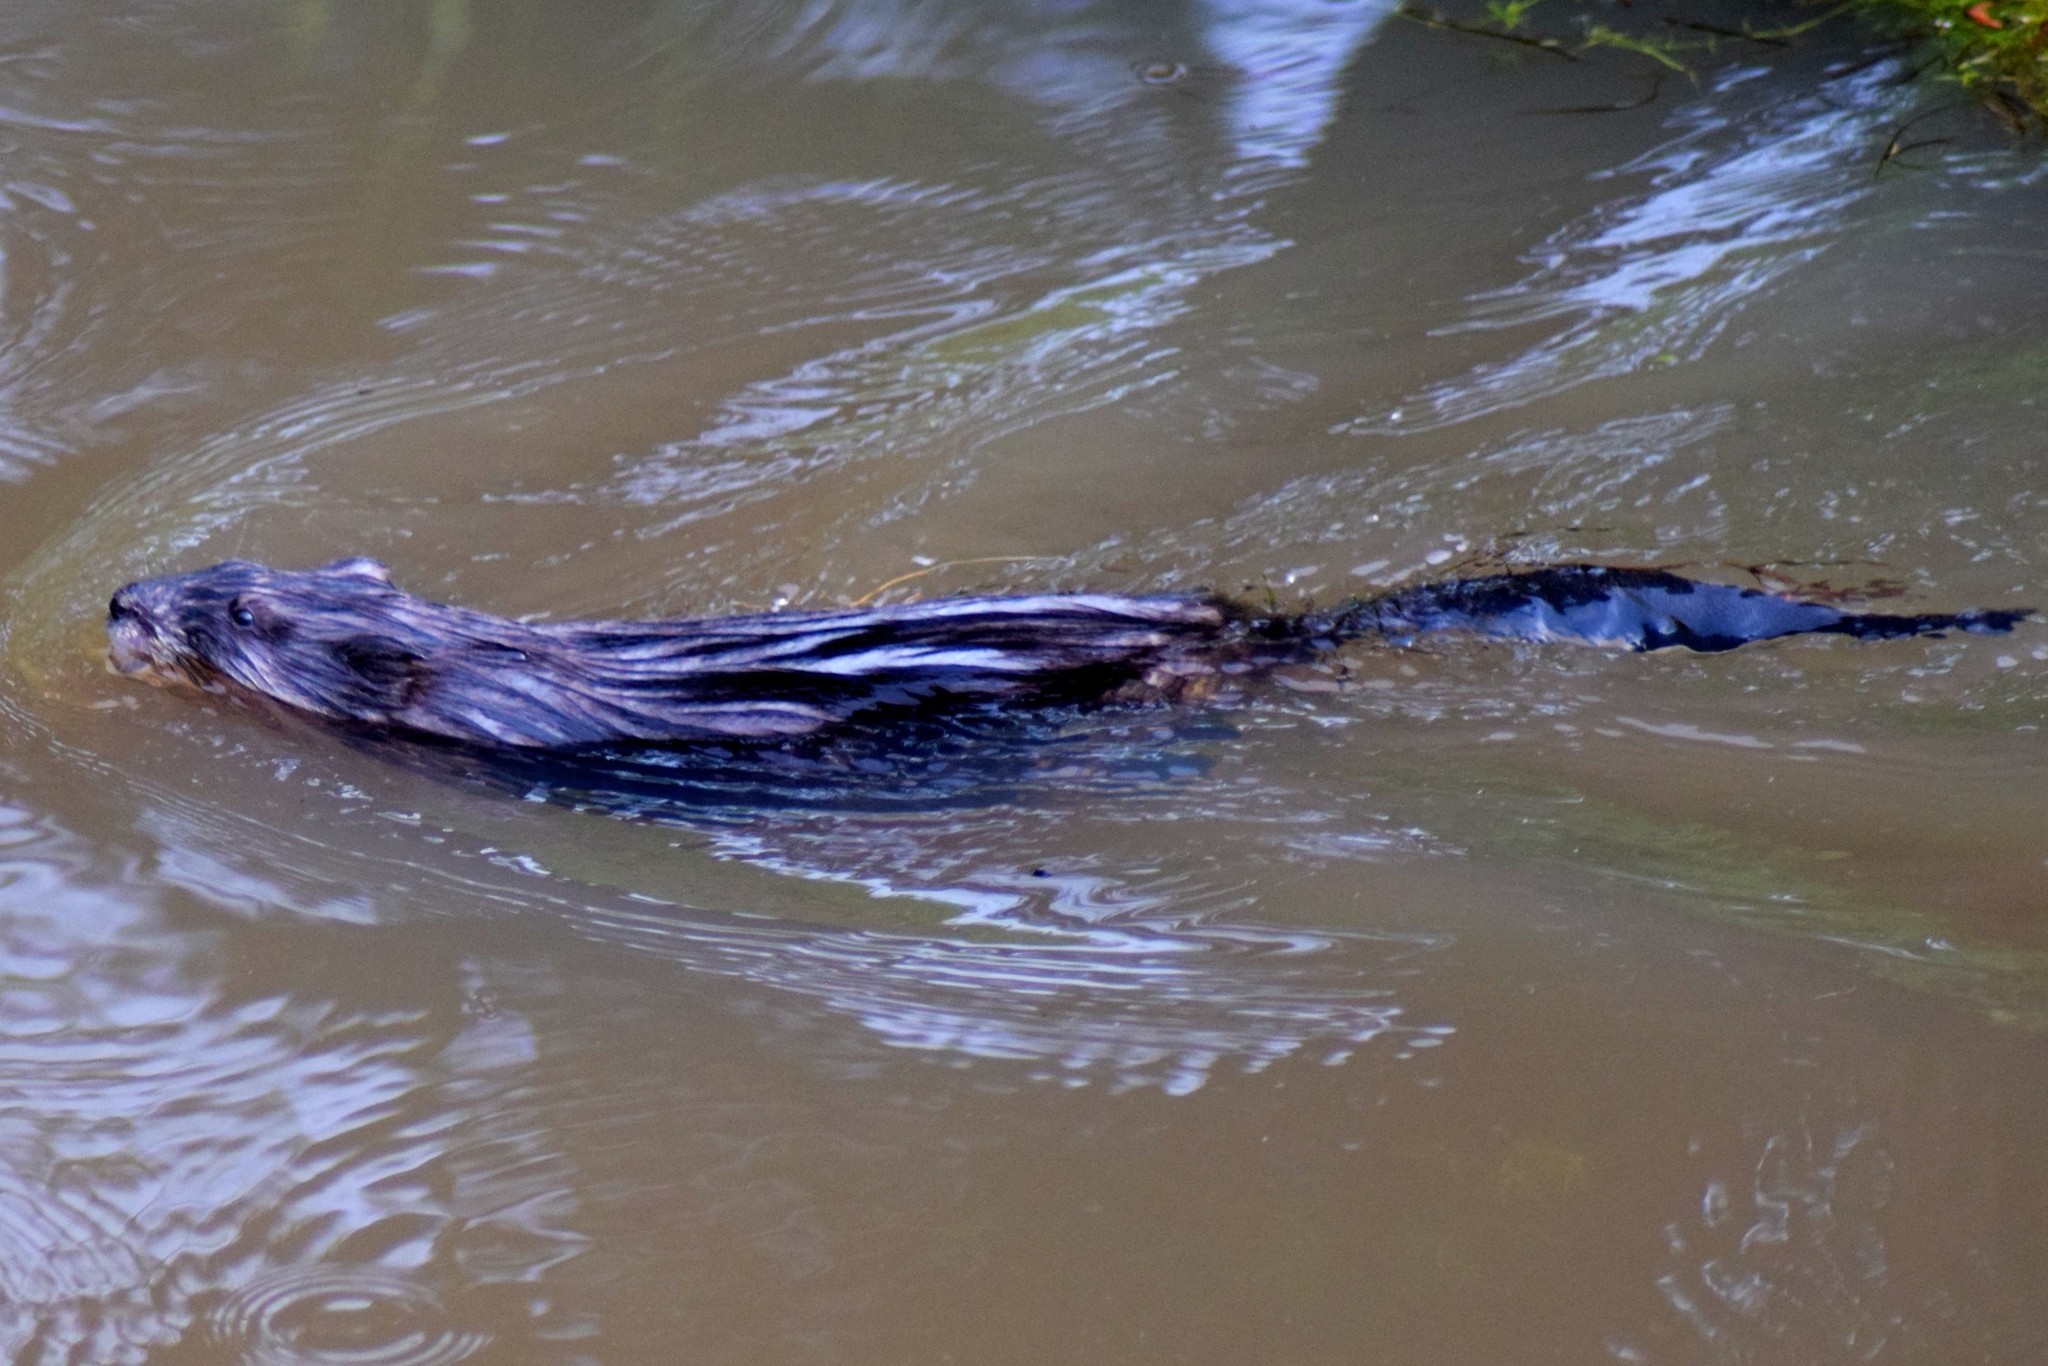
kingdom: Animalia
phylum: Chordata
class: Mammalia
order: Rodentia
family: Cricetidae
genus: Ondatra
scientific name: Ondatra zibethicus
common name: Muskrat
